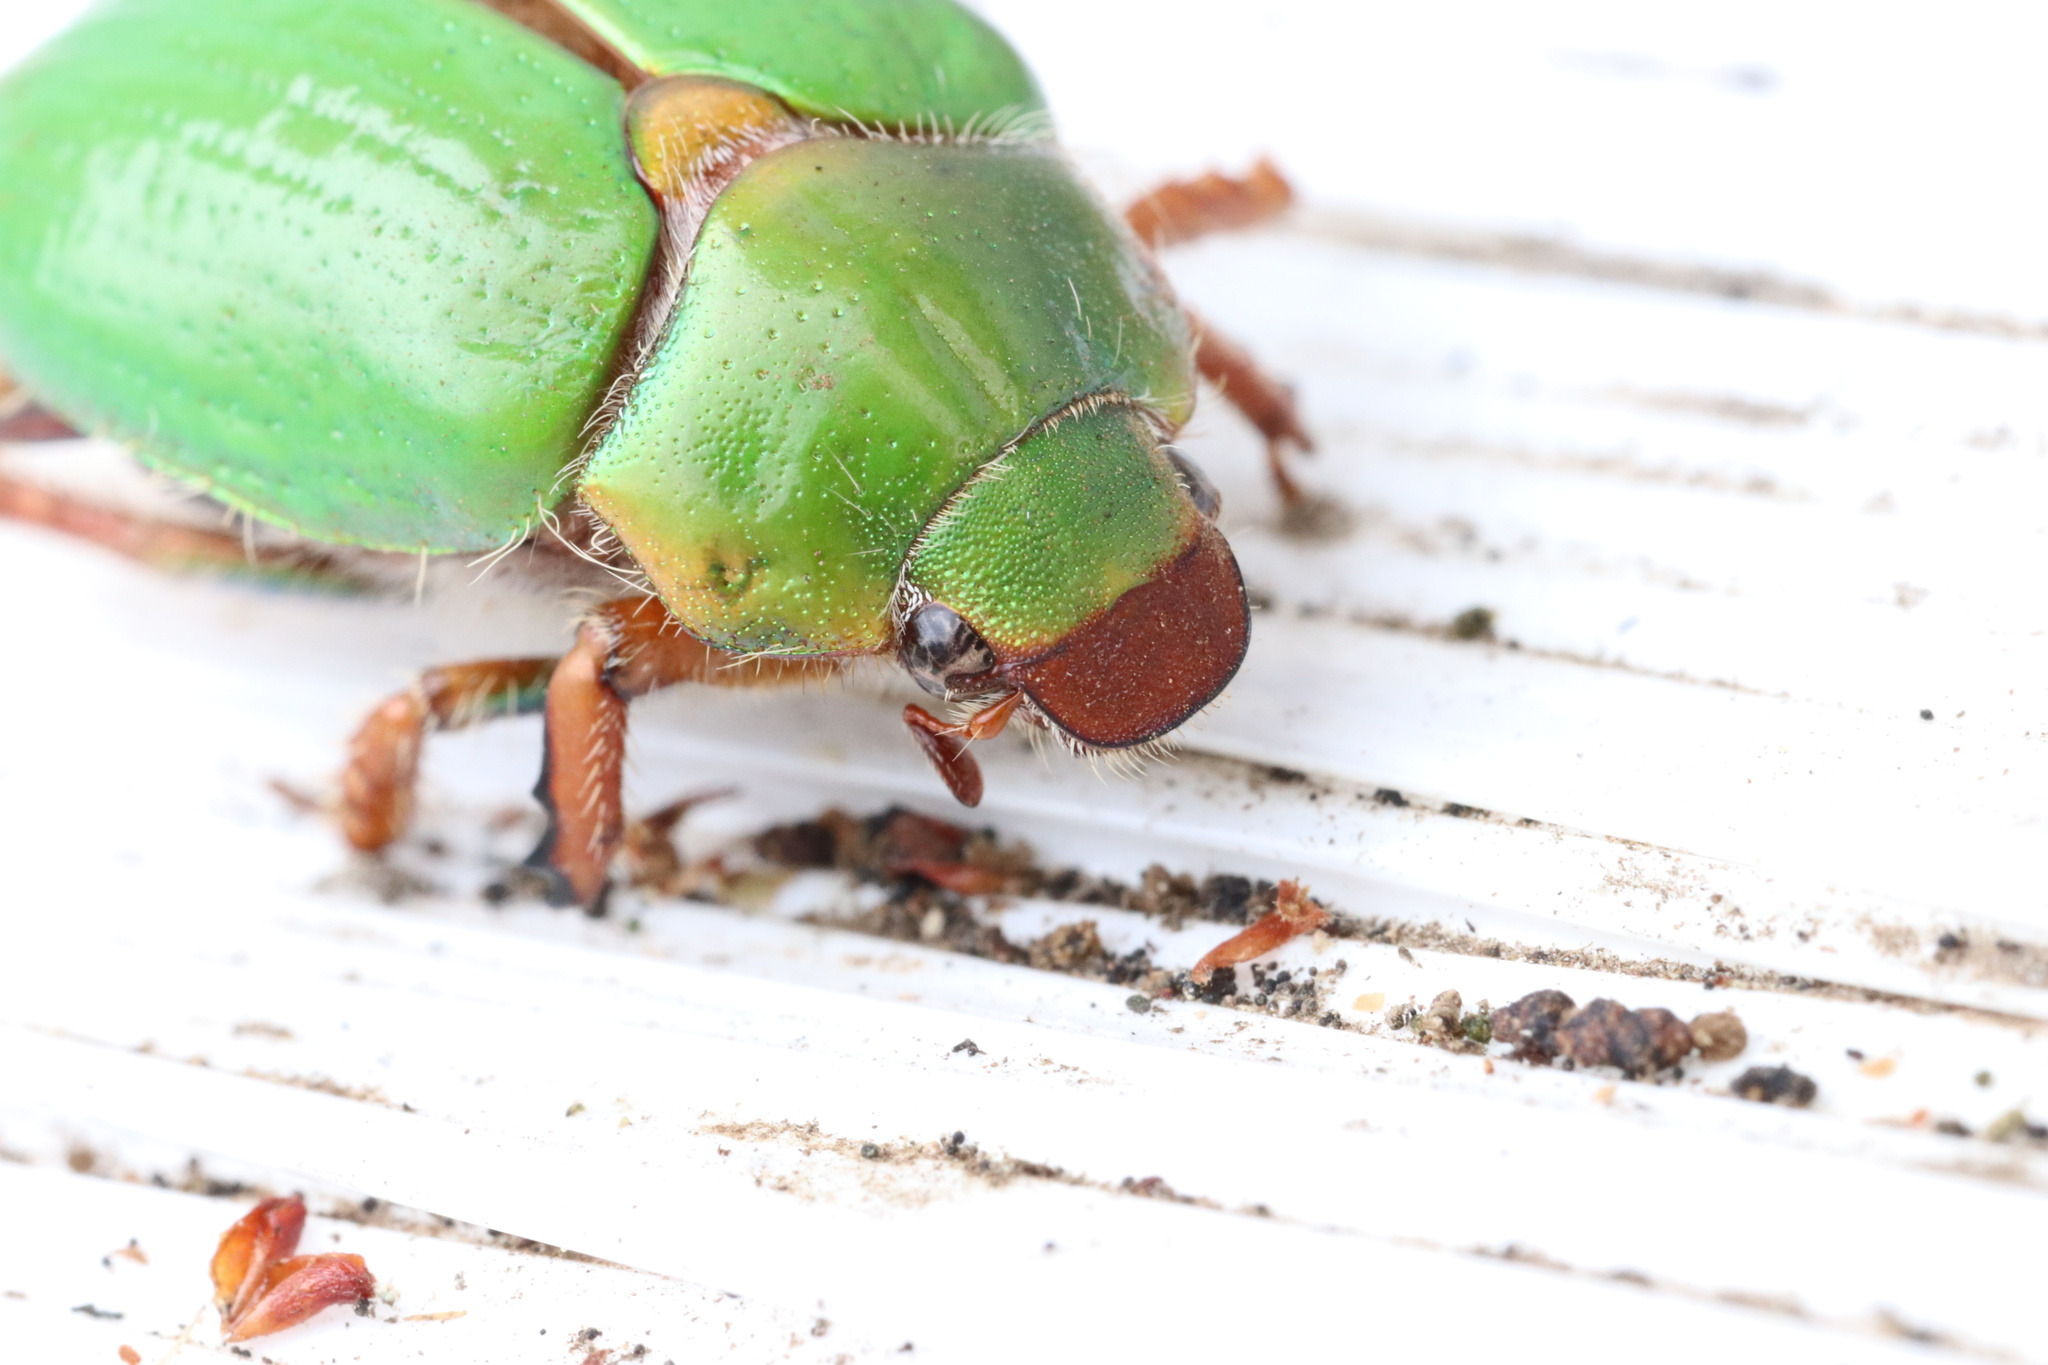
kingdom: Animalia
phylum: Arthropoda
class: Insecta
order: Coleoptera
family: Scarabaeidae
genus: Brachysternus
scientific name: Brachysternus prasinus
